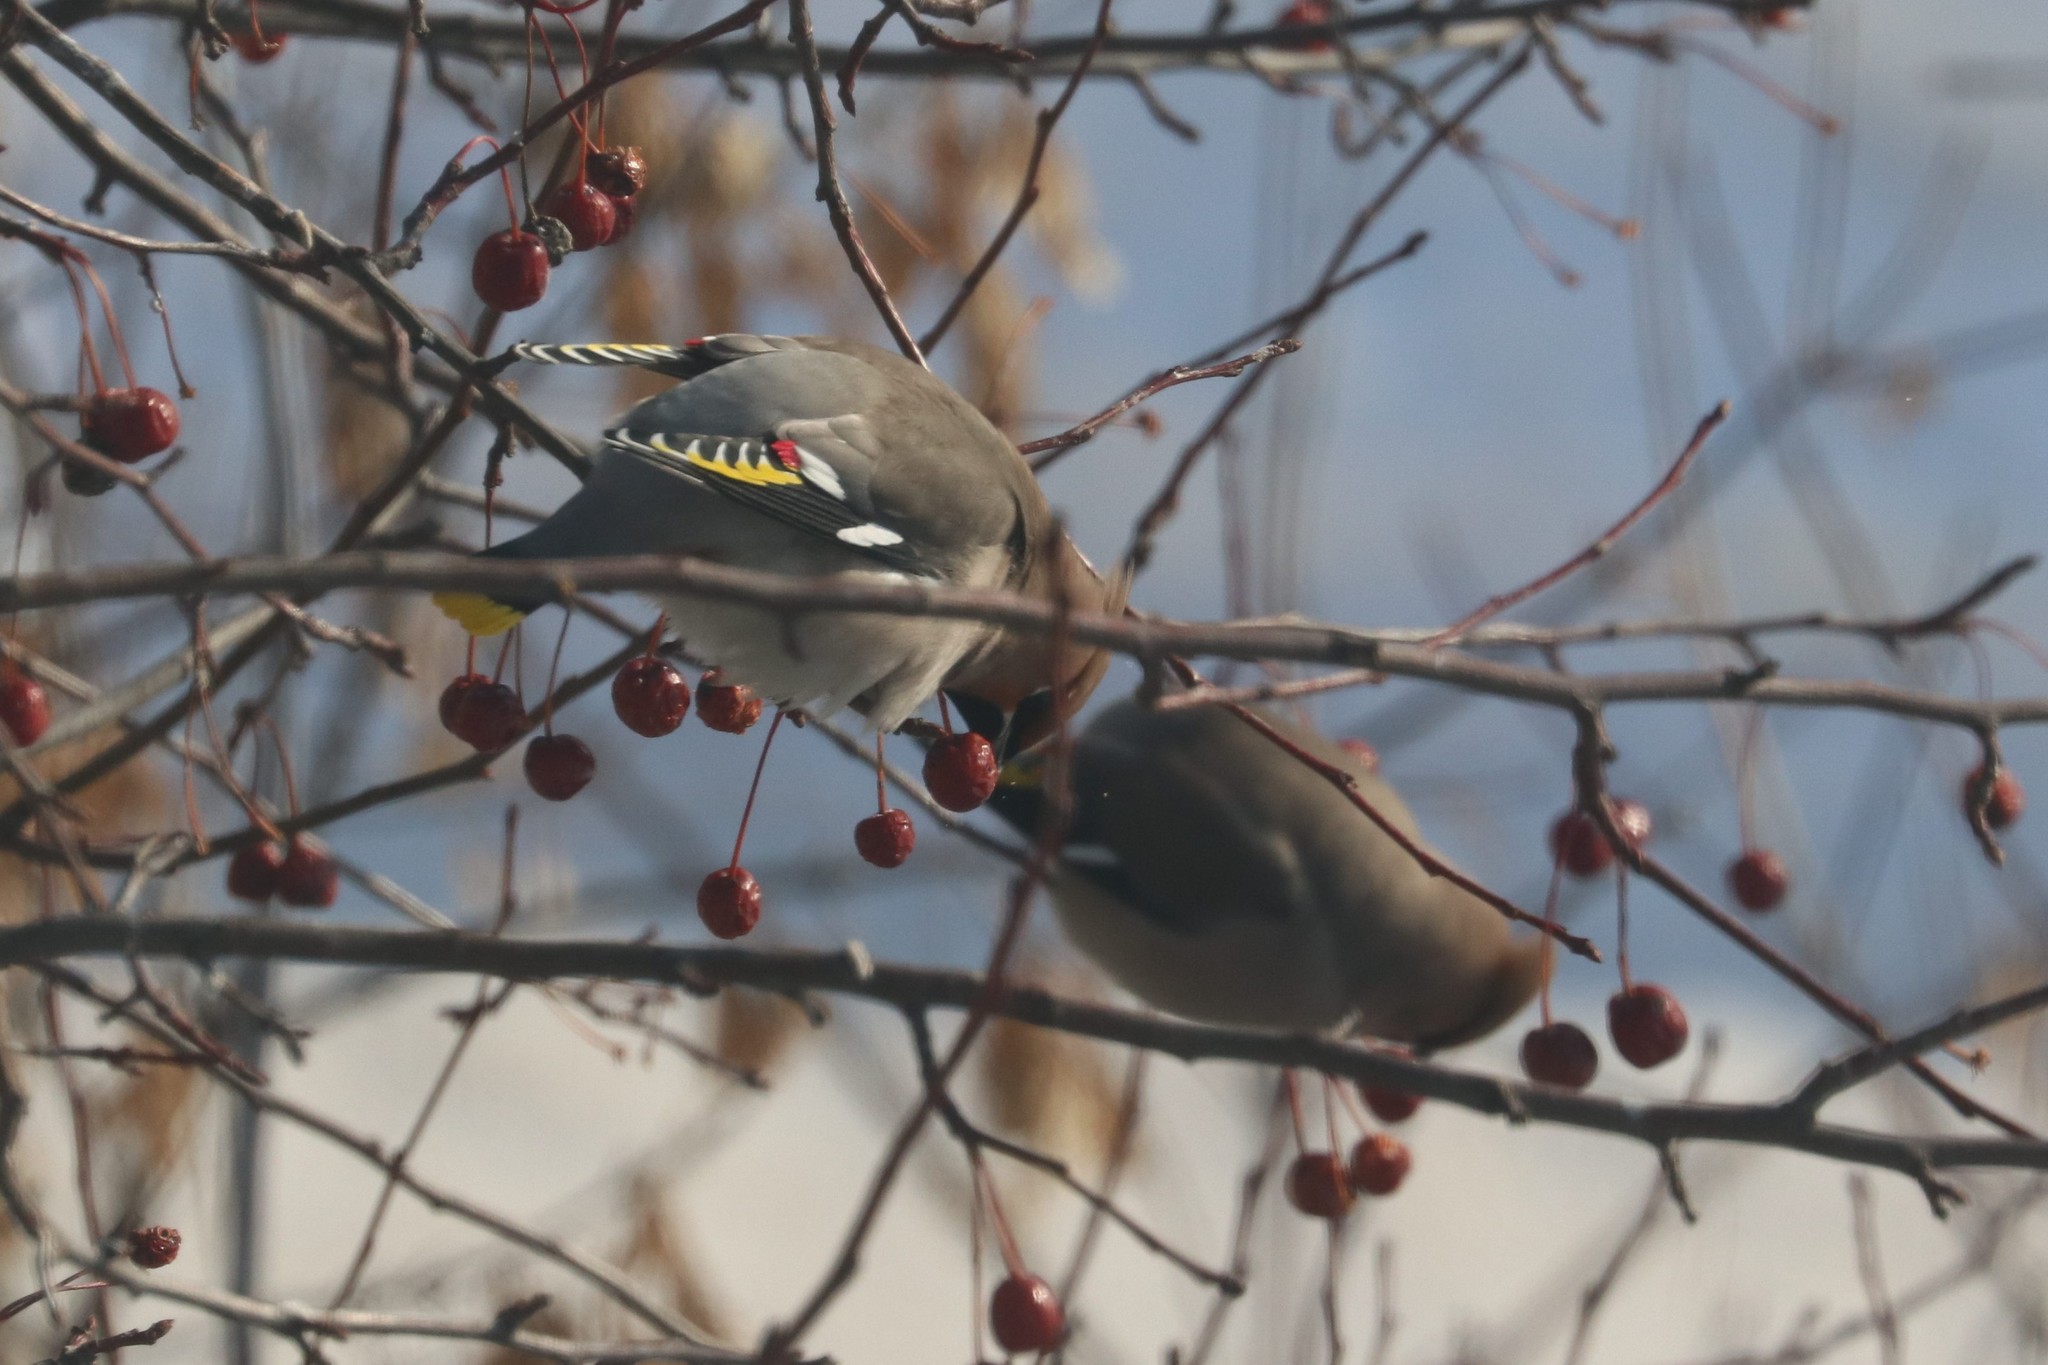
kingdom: Animalia
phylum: Chordata
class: Aves
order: Passeriformes
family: Bombycillidae
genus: Bombycilla
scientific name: Bombycilla garrulus
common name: Bohemian waxwing
